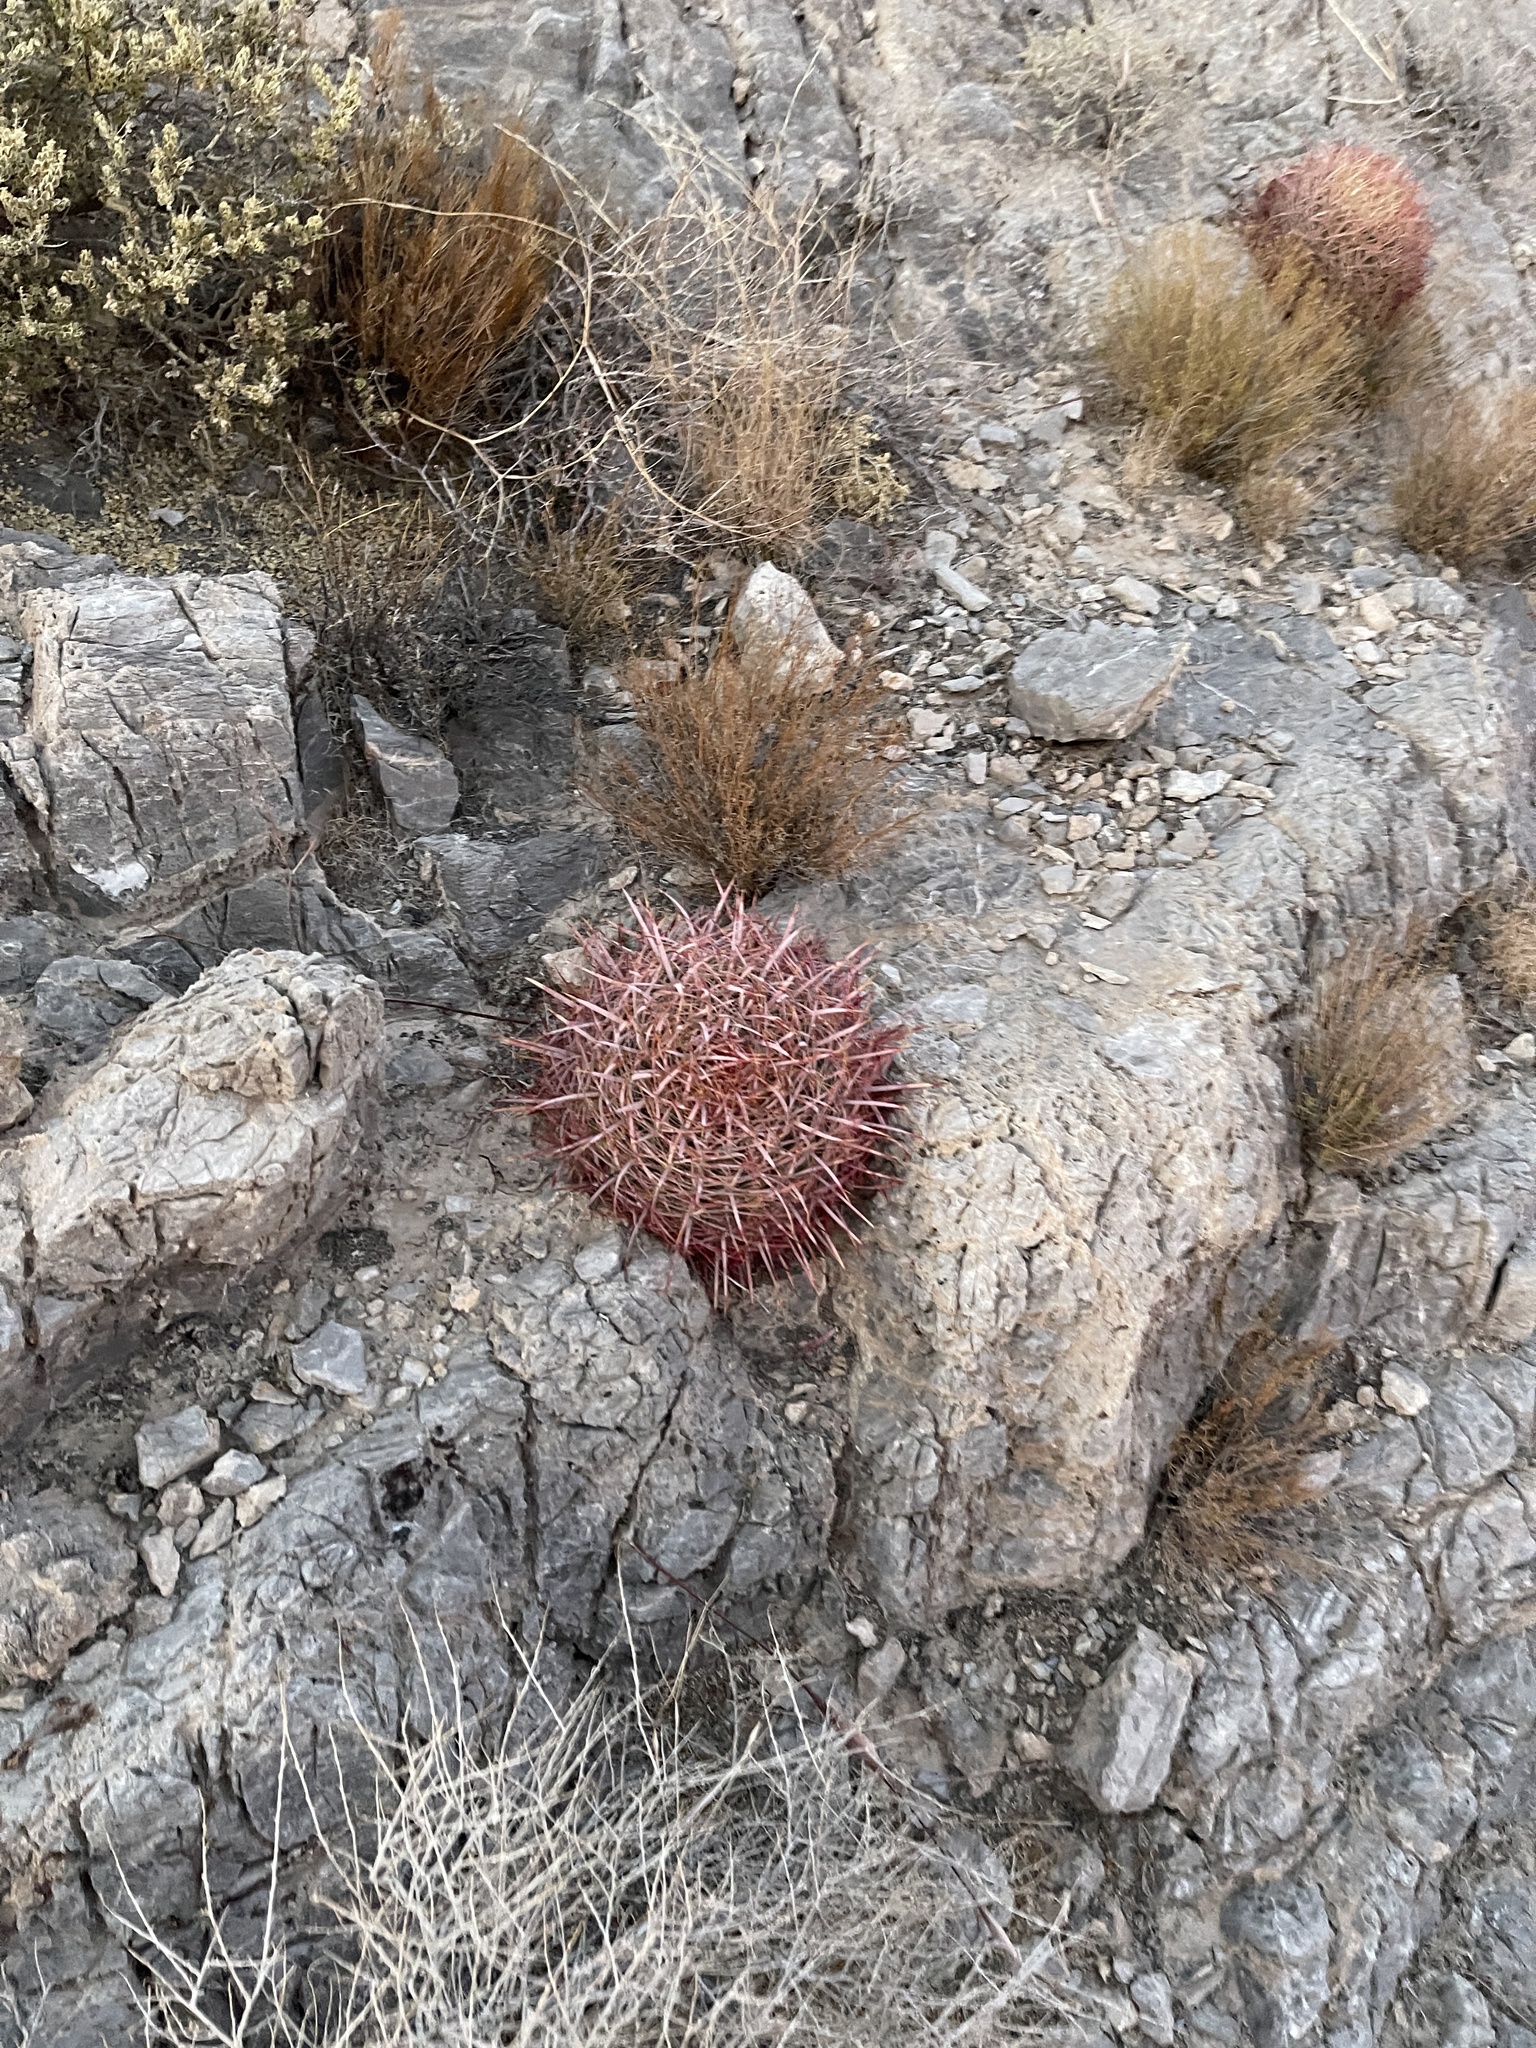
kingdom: Plantae
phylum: Tracheophyta
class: Magnoliopsida
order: Caryophyllales
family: Cactaceae
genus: Ferocactus
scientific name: Ferocactus cylindraceus
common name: California barrel cactus
